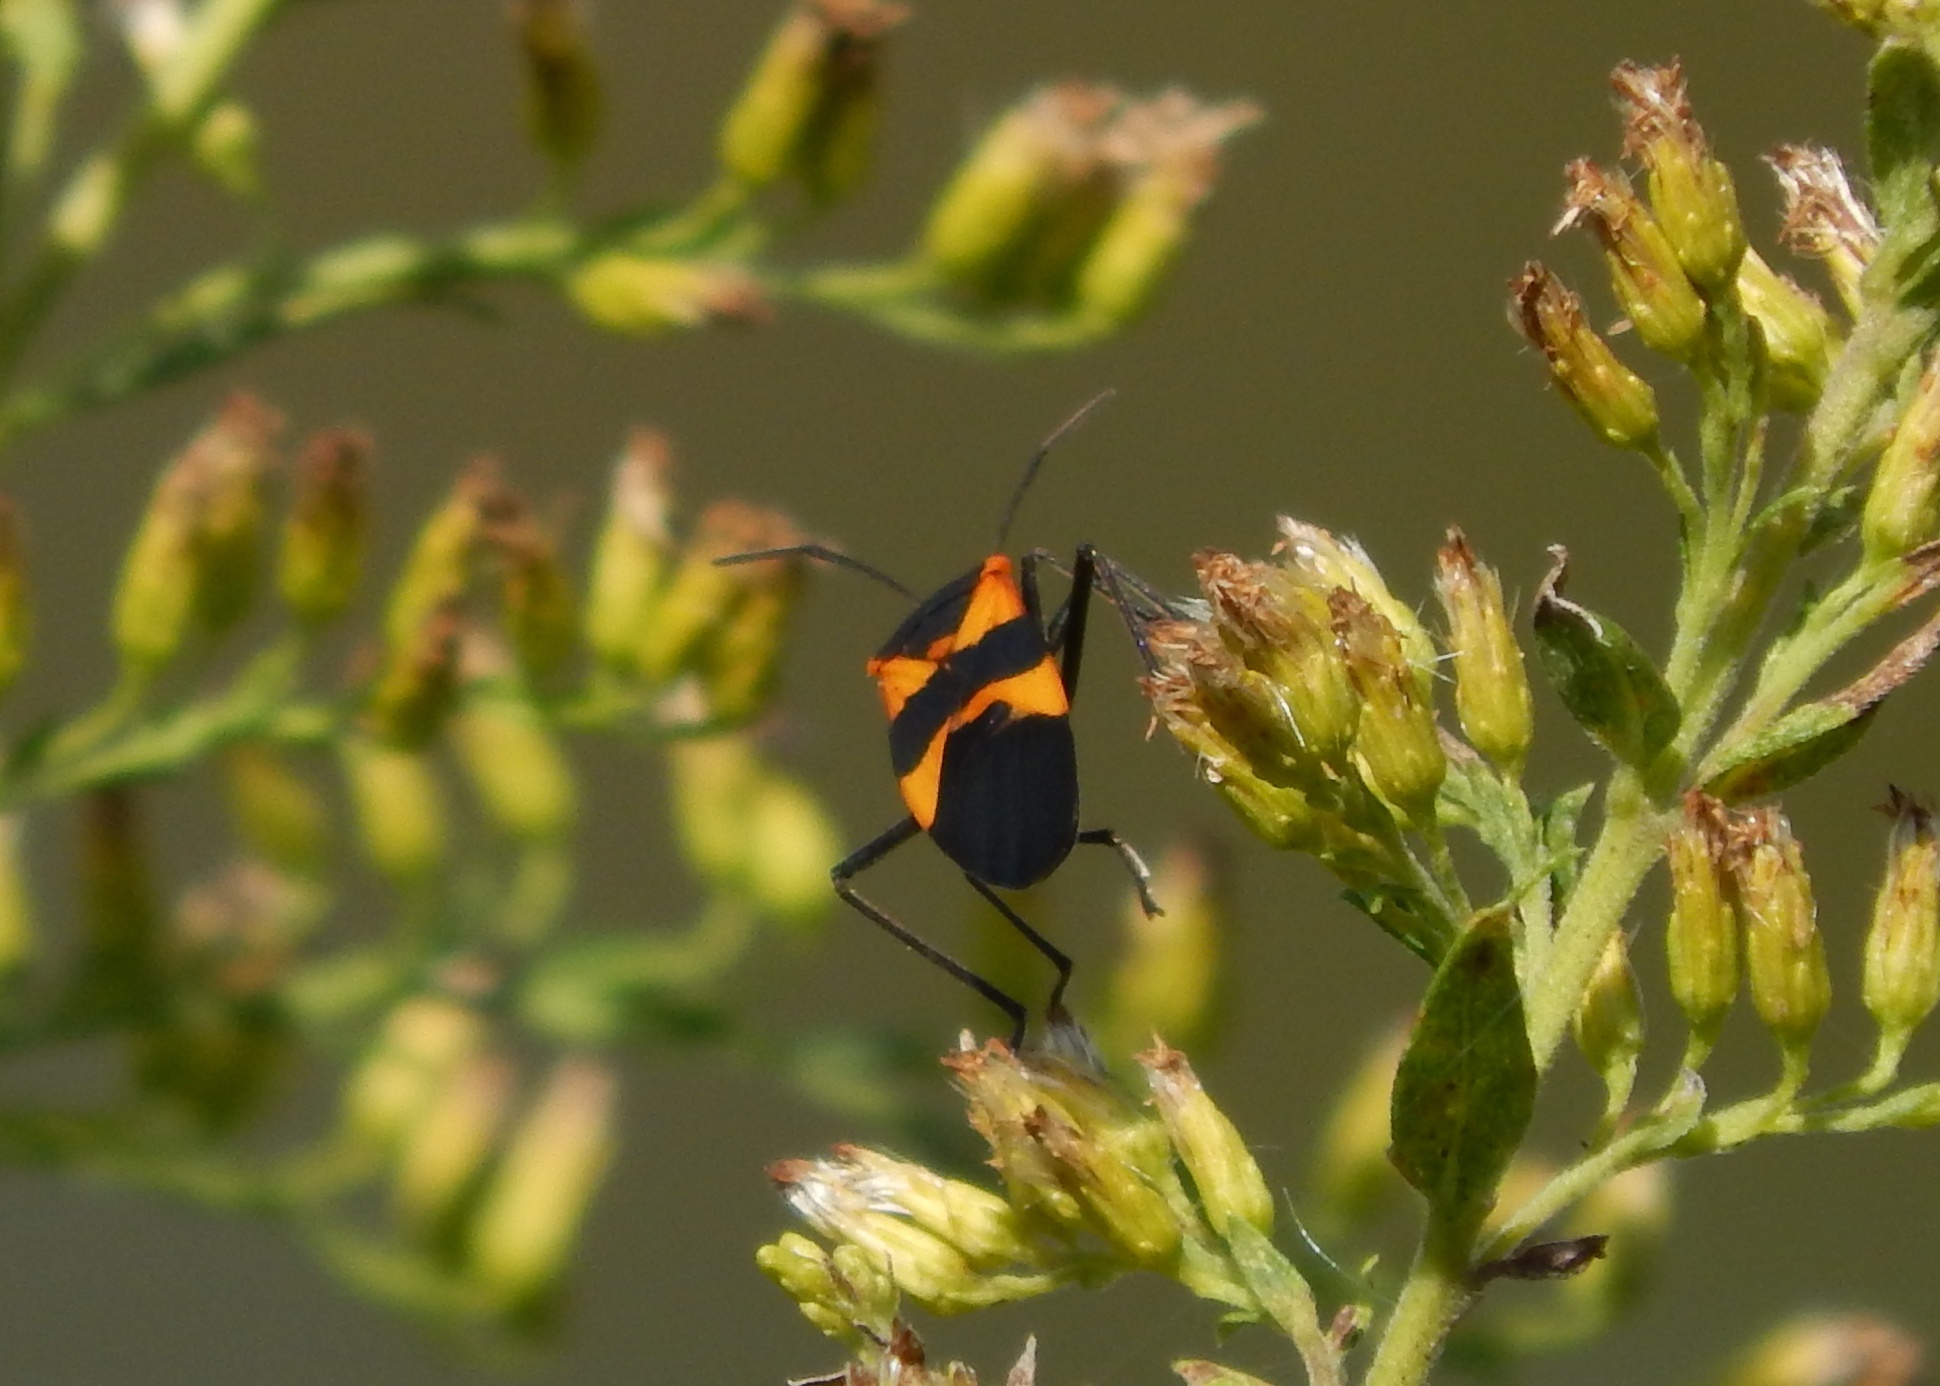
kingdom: Animalia
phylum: Arthropoda
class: Insecta
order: Hemiptera
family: Lygaeidae
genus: Oncopeltus
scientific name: Oncopeltus fasciatus
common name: Large milkweed bug
